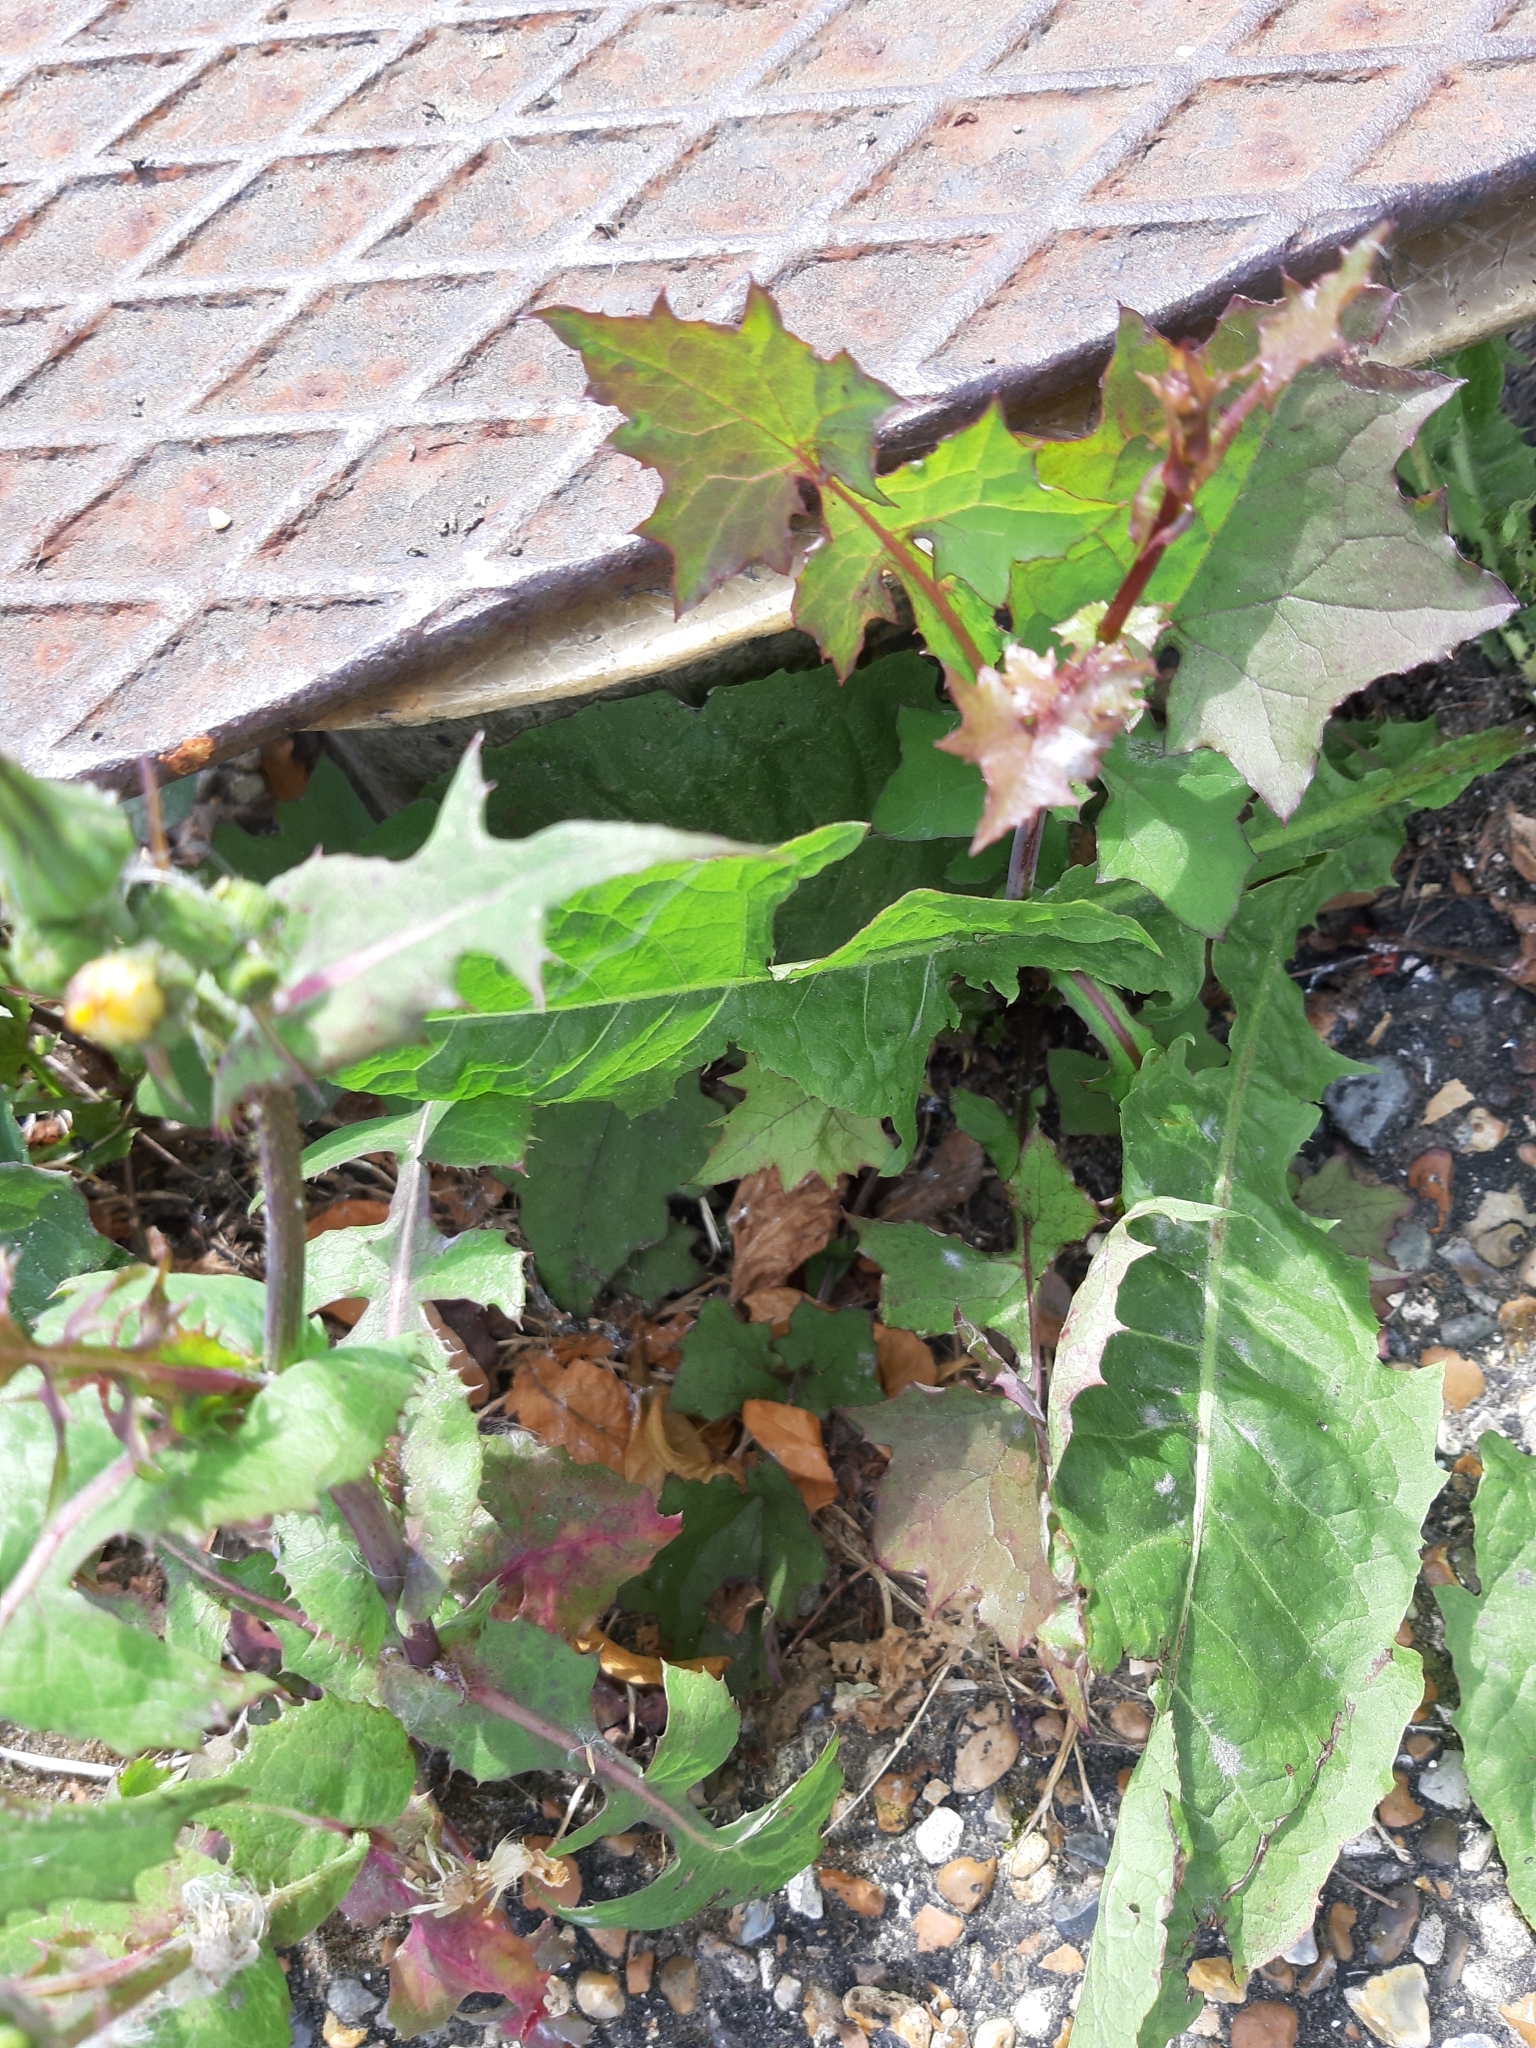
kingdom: Plantae
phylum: Tracheophyta
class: Magnoliopsida
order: Asterales
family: Asteraceae
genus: Sonchus
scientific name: Sonchus oleraceus
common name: Common sowthistle
